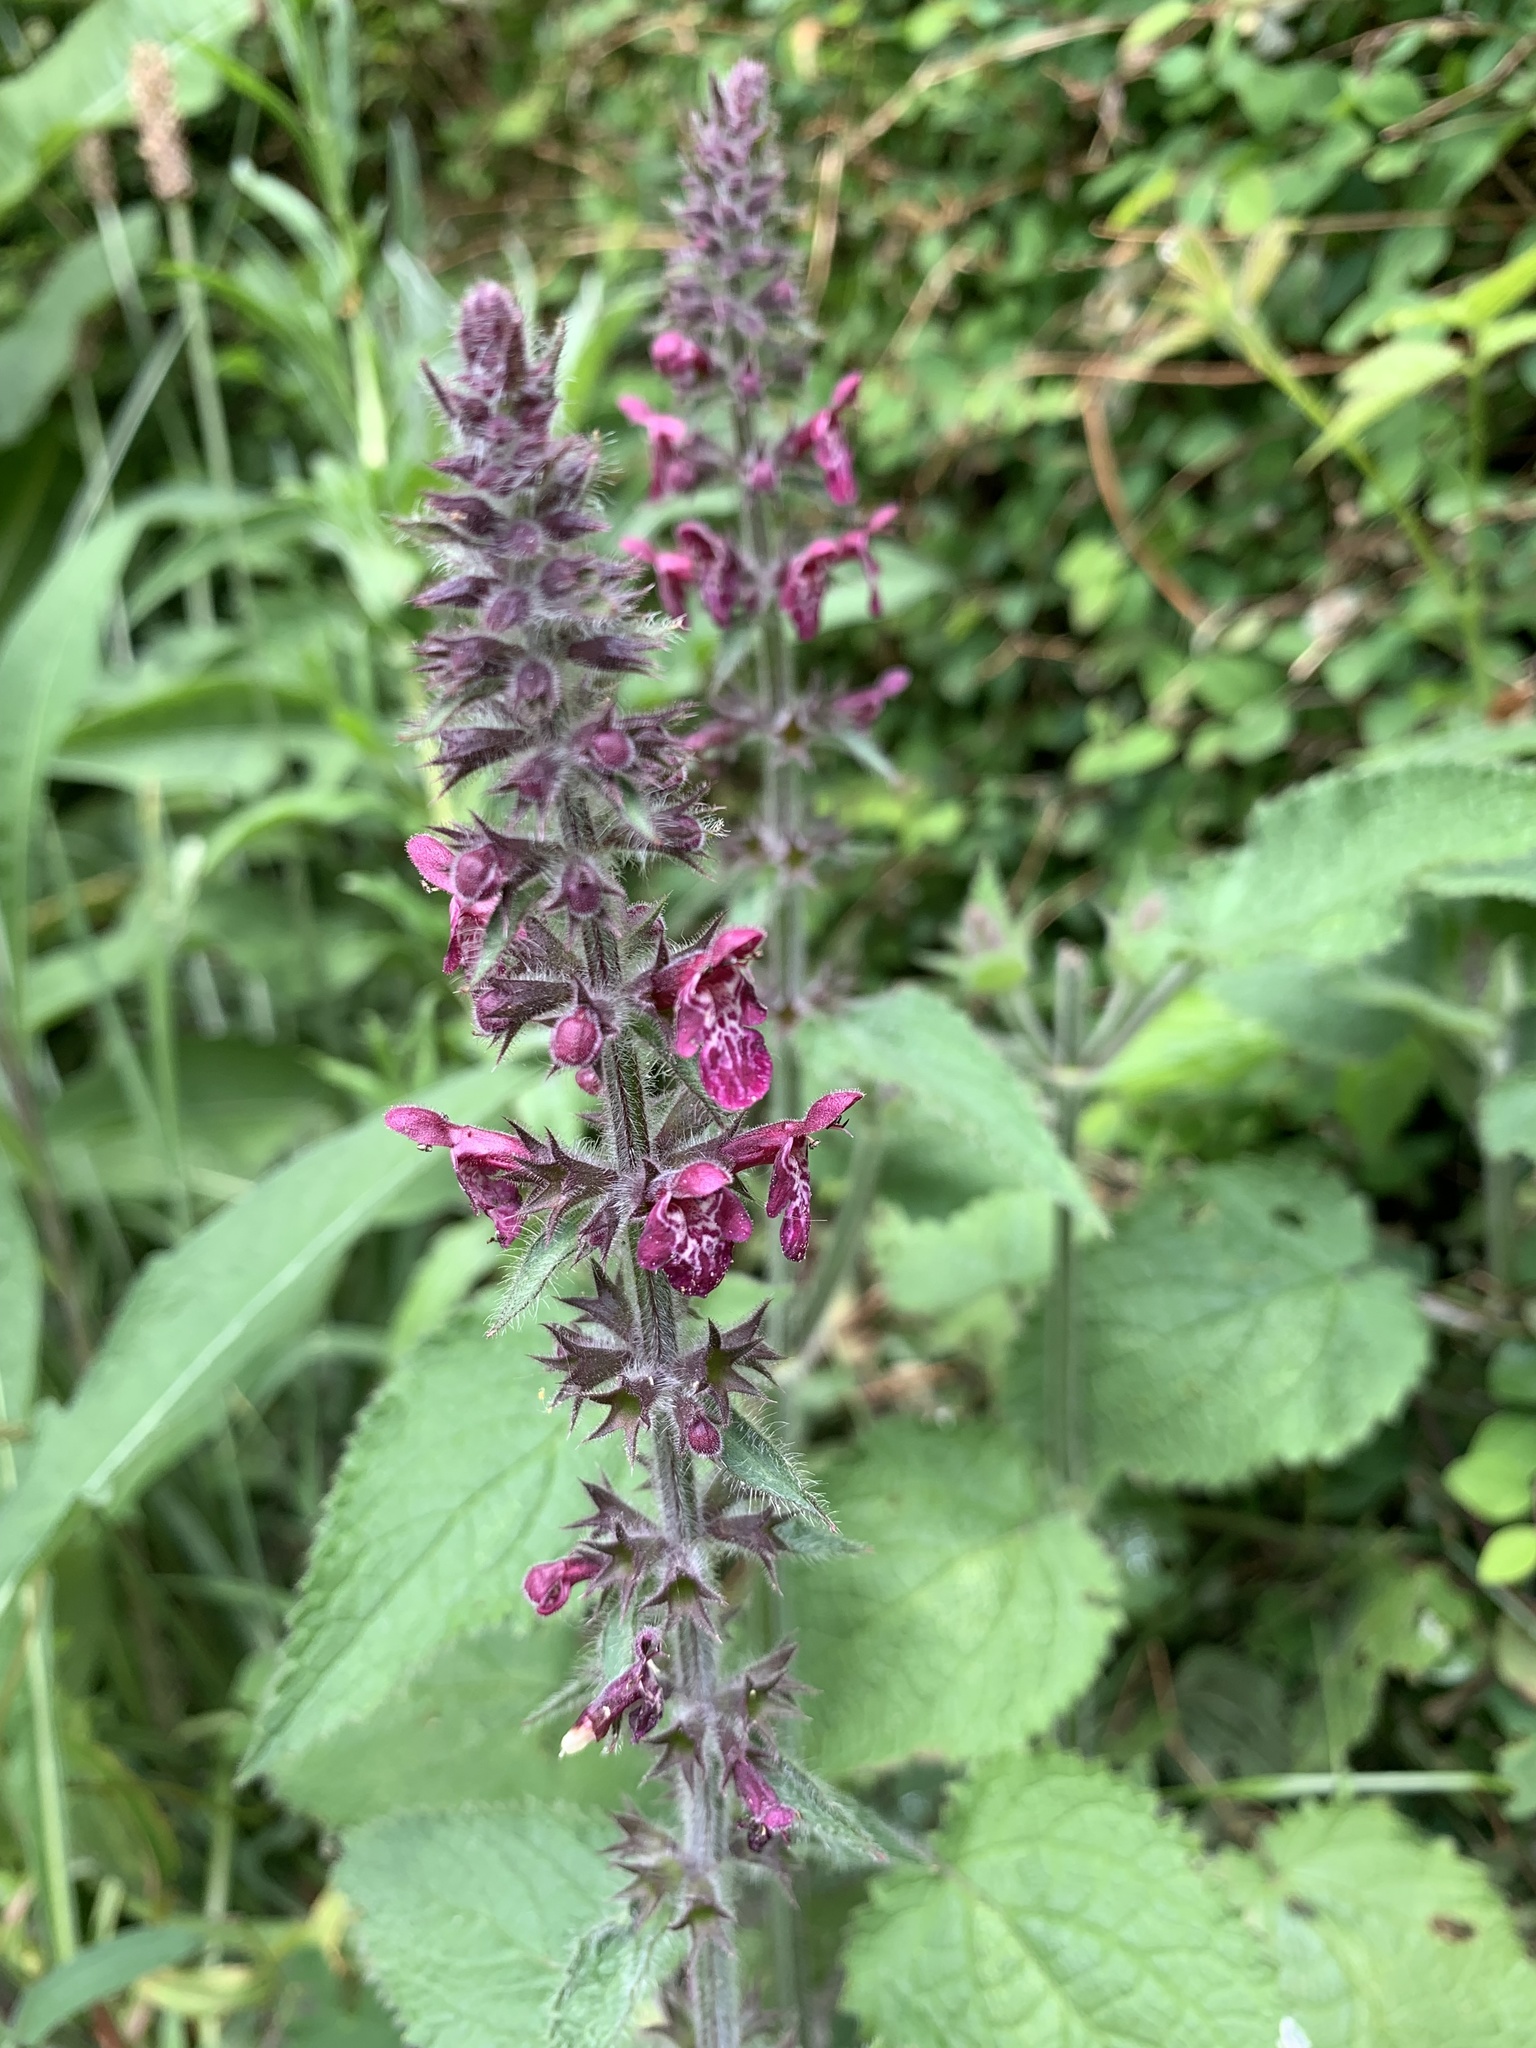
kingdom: Plantae
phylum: Tracheophyta
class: Magnoliopsida
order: Lamiales
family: Lamiaceae
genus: Stachys
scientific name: Stachys sylvatica
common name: Hedge woundwort
